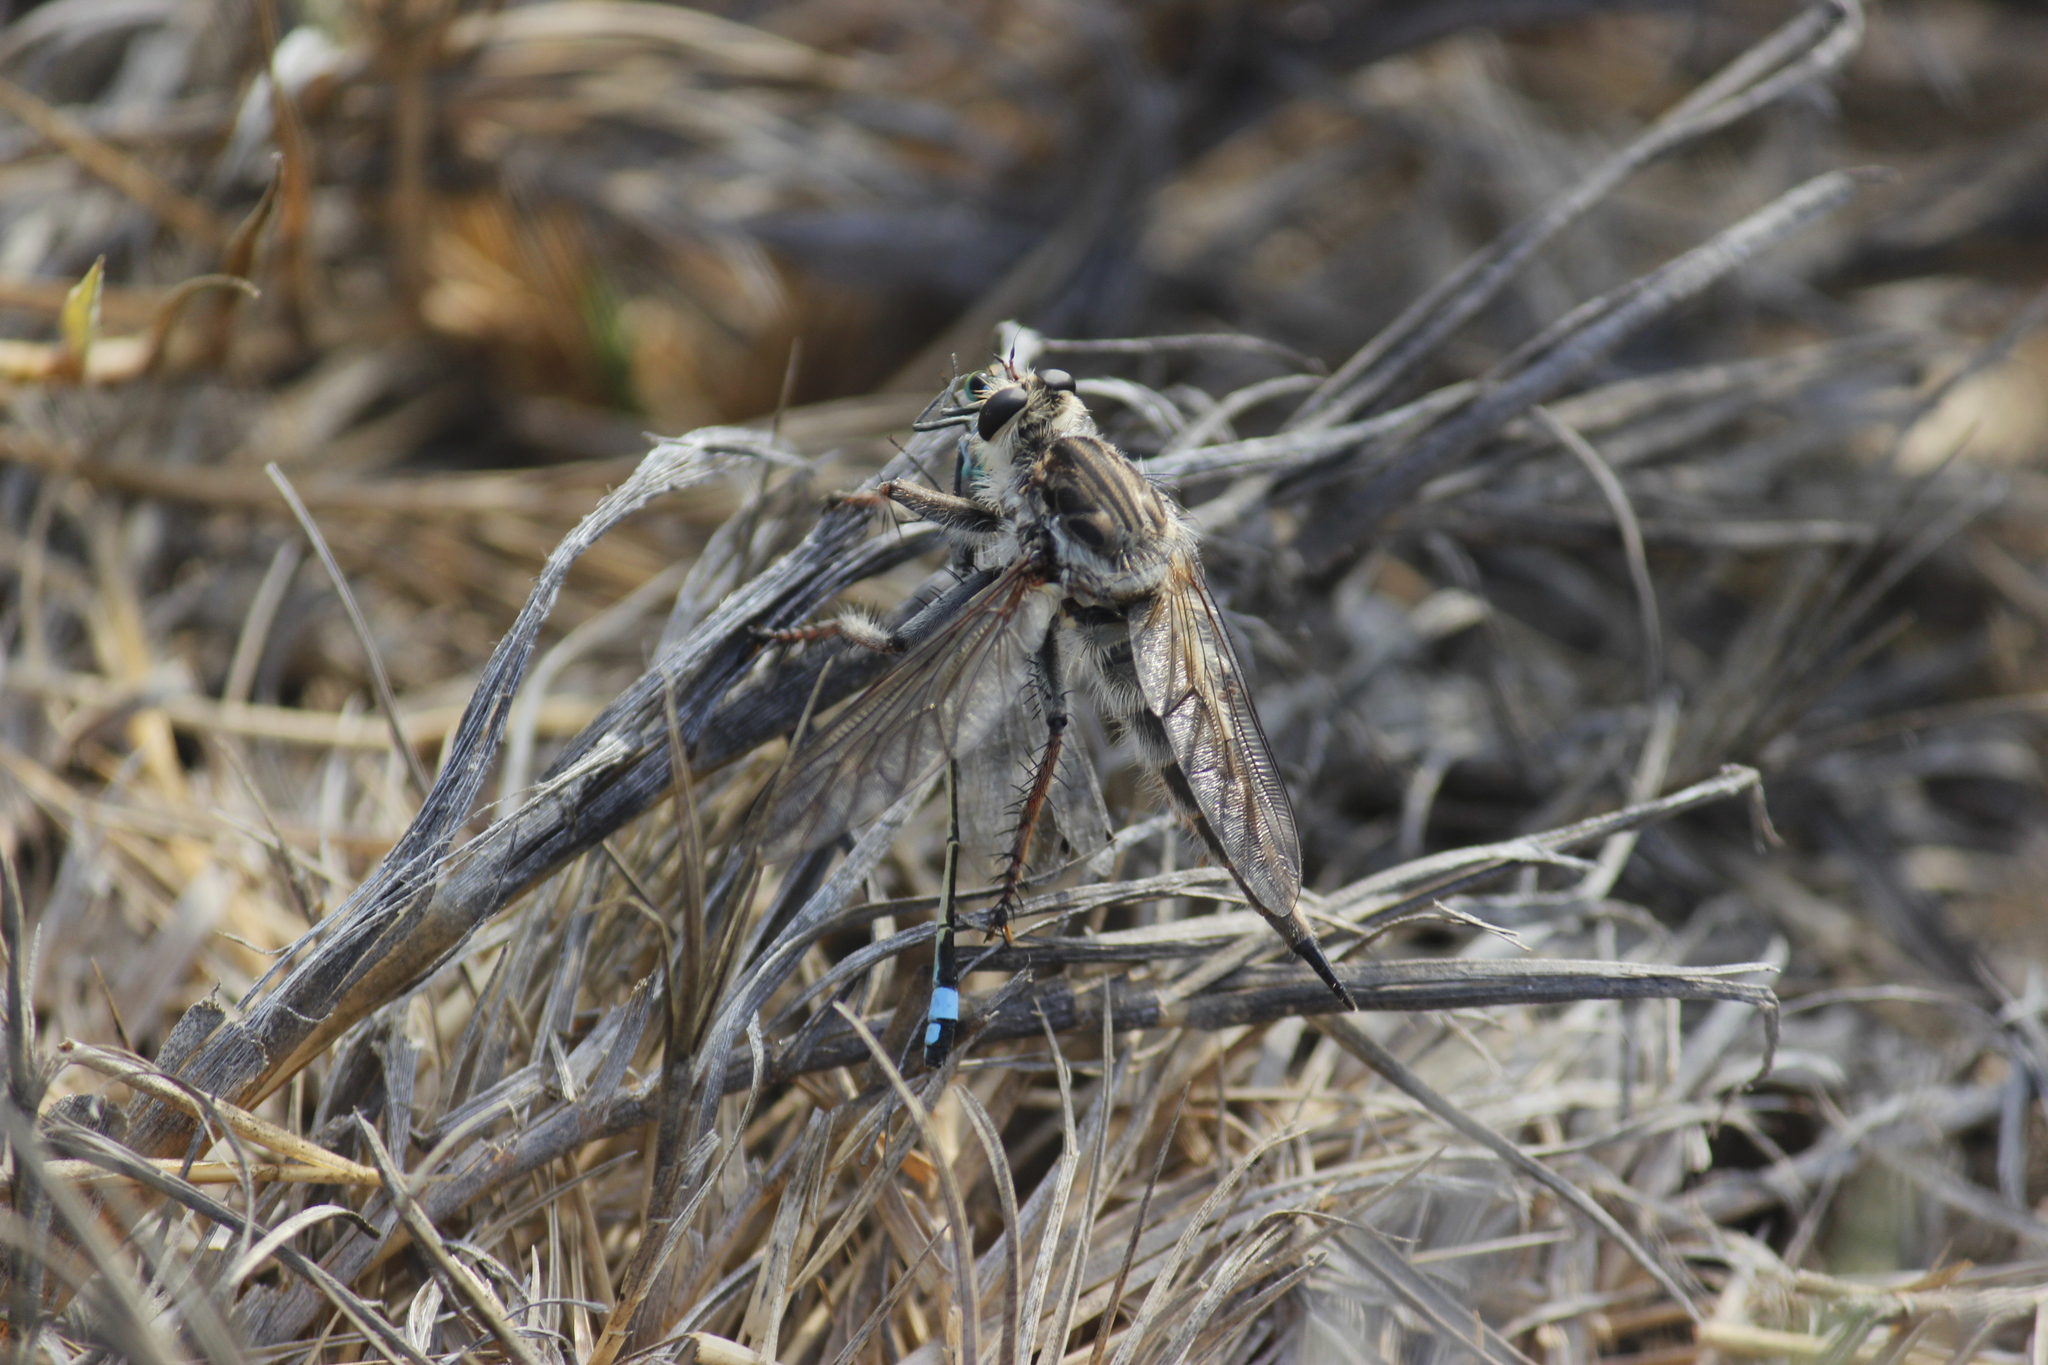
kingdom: Animalia
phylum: Arthropoda
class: Insecta
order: Diptera
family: Asilidae
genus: Lochmorhynchus
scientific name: Lochmorhynchus leoninus
